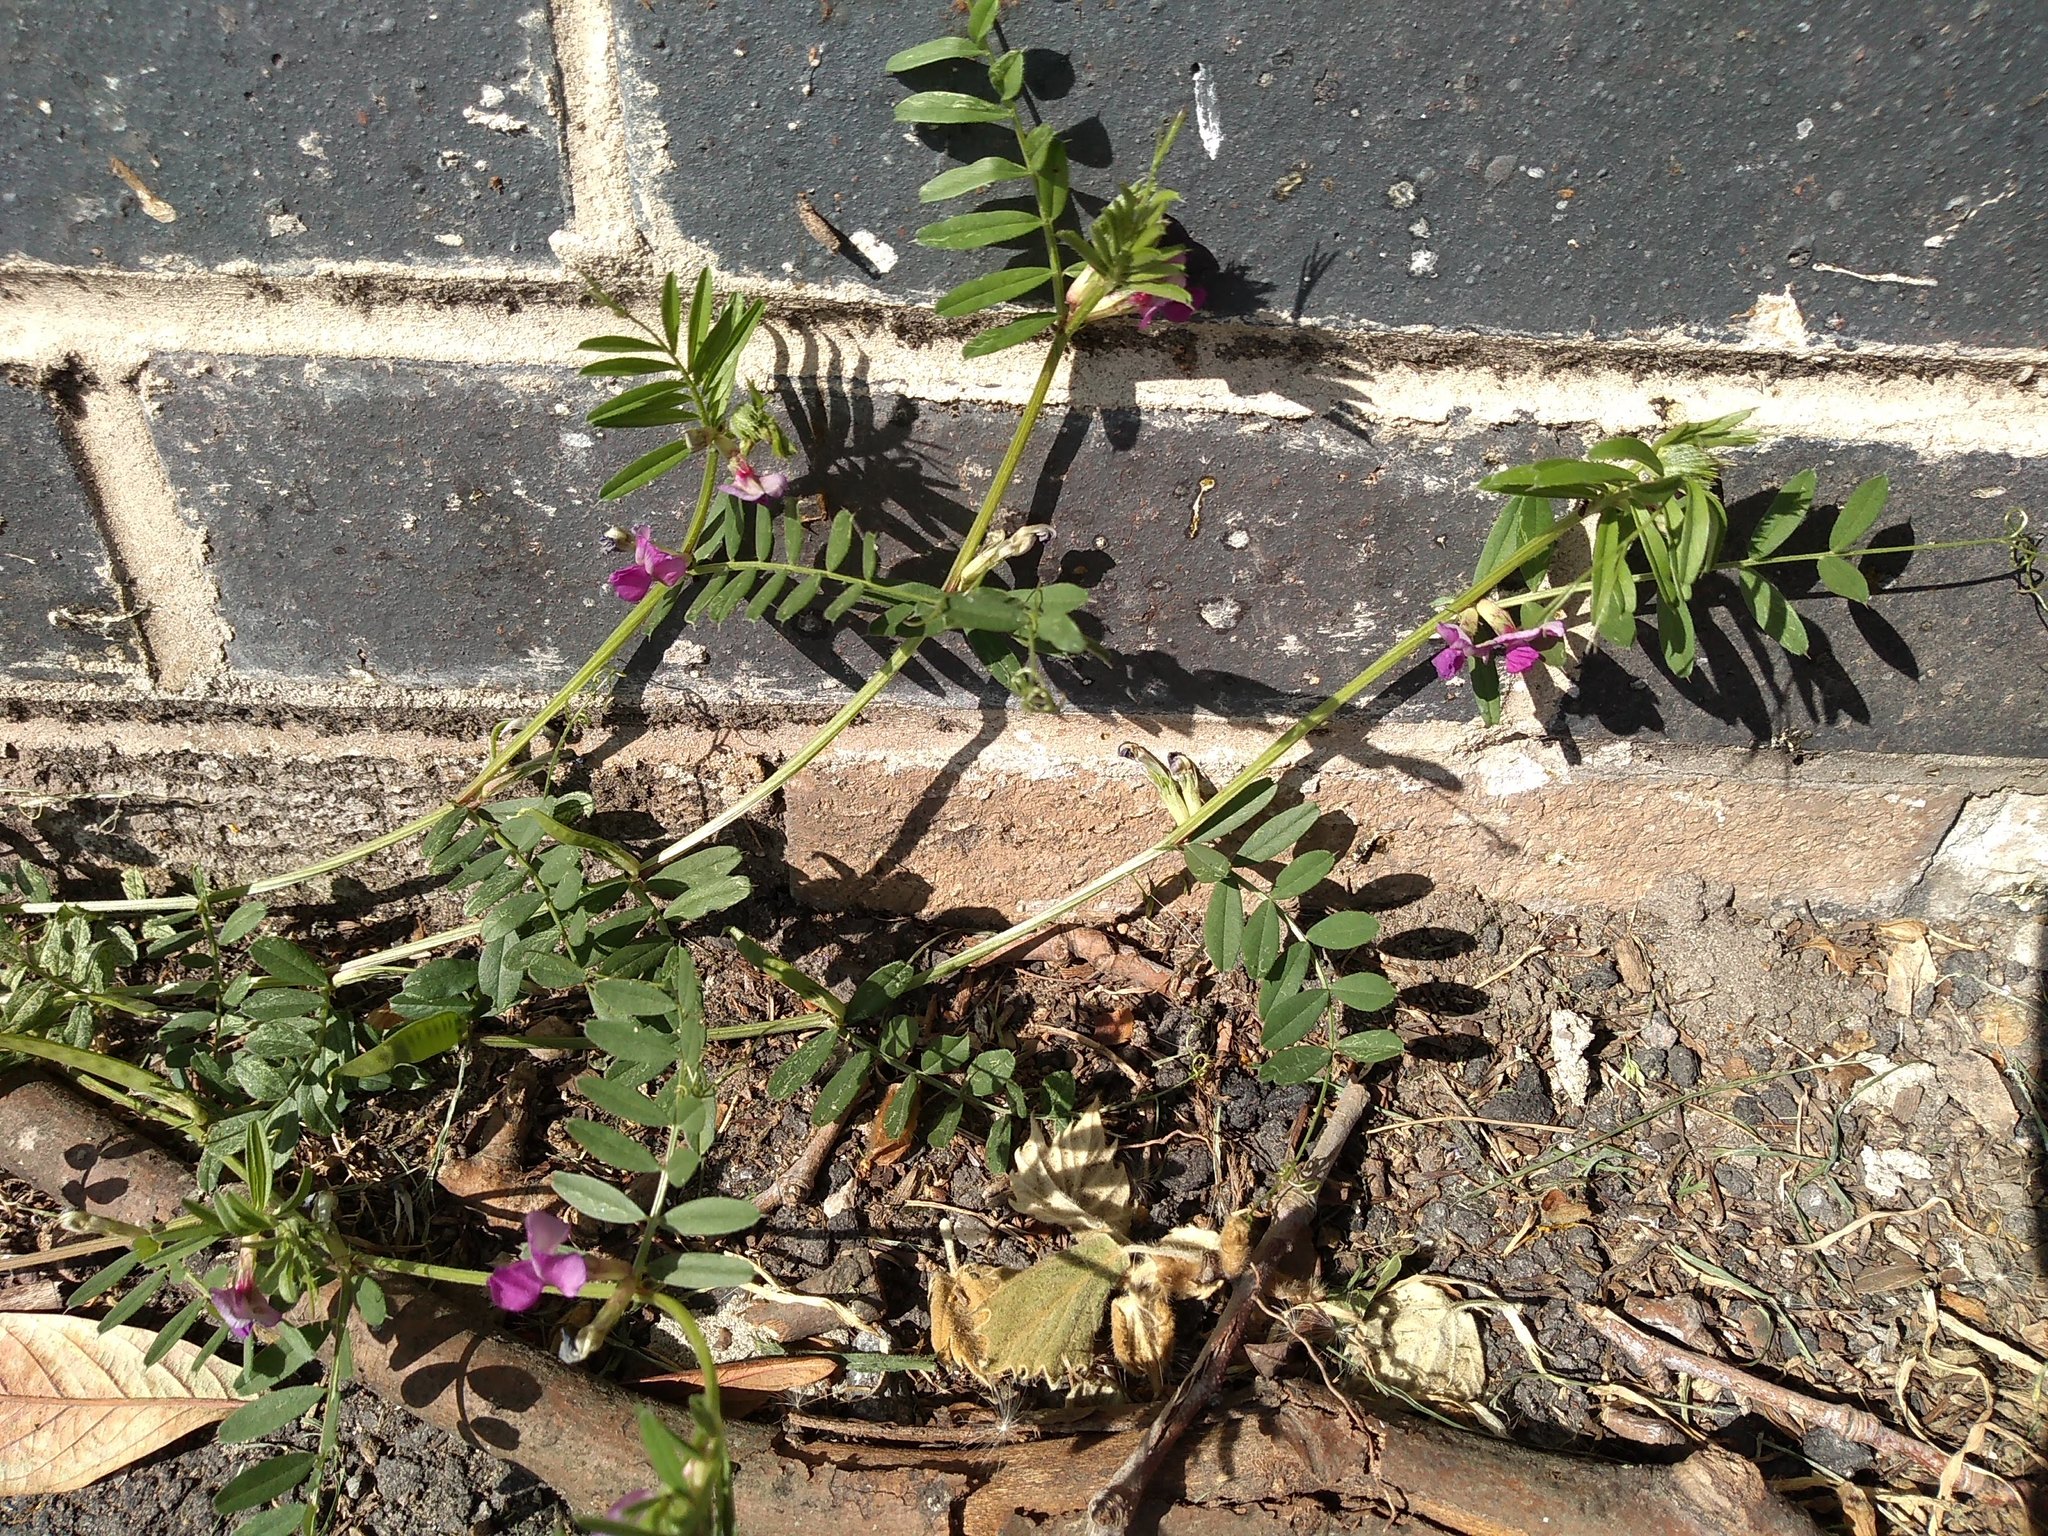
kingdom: Plantae
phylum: Tracheophyta
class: Magnoliopsida
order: Fabales
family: Fabaceae
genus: Vicia
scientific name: Vicia sativa
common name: Garden vetch
